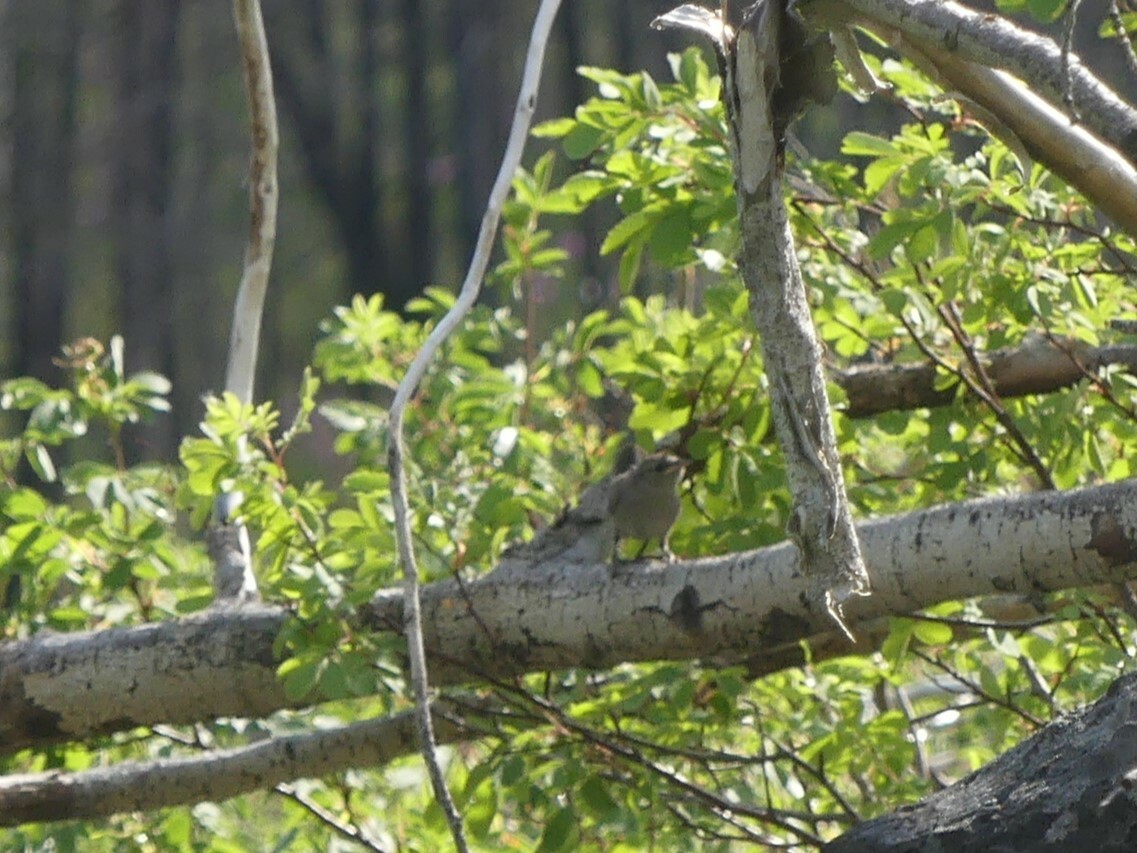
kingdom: Animalia
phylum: Chordata
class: Aves
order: Passeriformes
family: Troglodytidae
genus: Troglodytes
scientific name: Troglodytes aedon
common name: House wren
